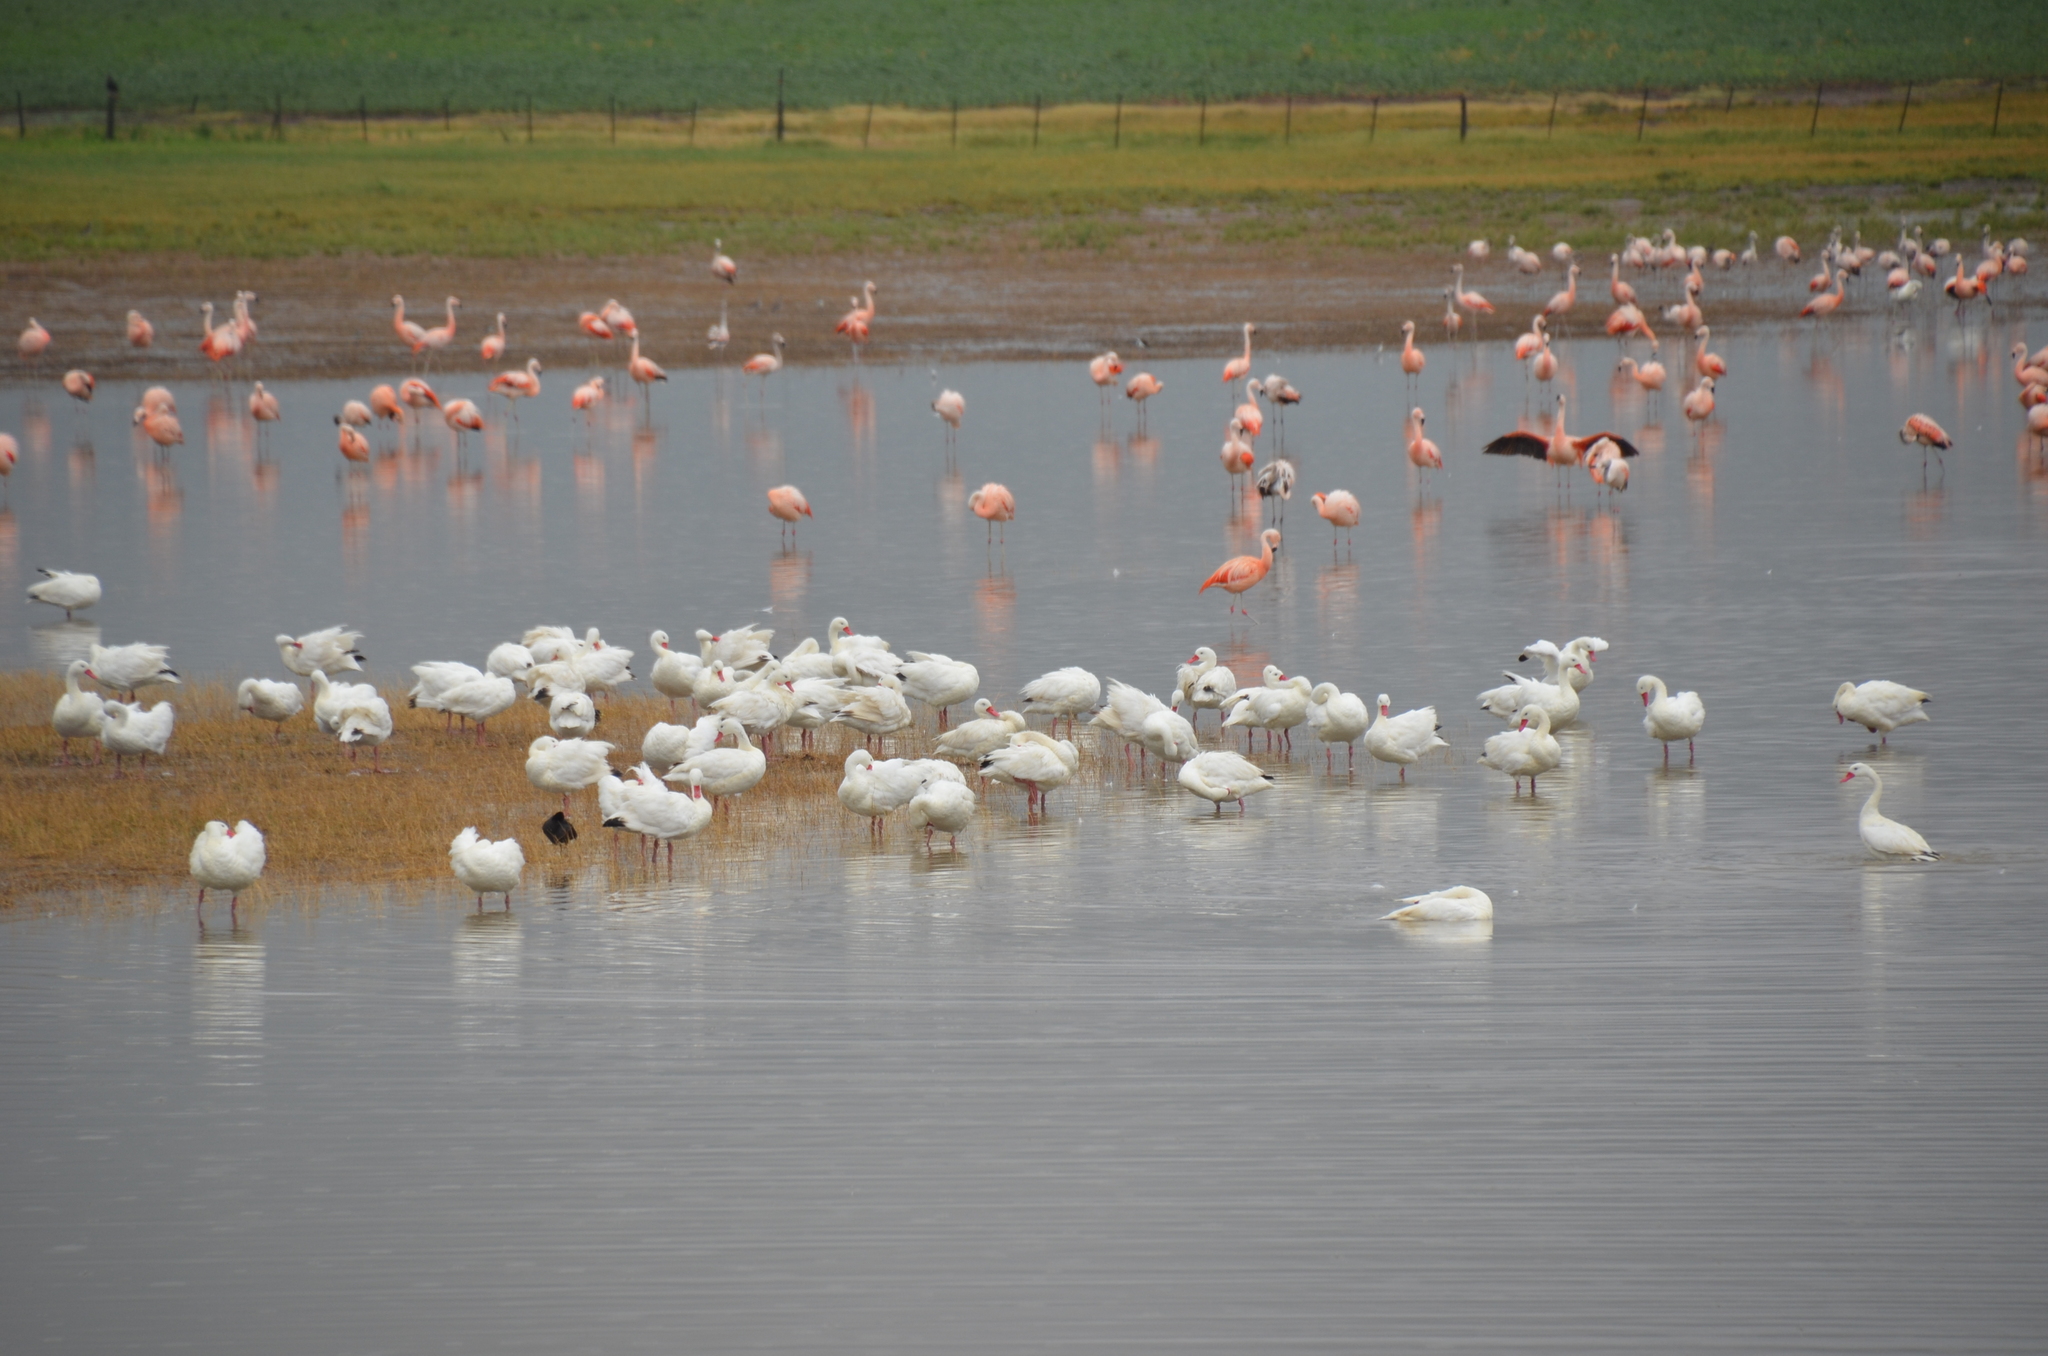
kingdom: Animalia
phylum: Chordata
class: Aves
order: Anseriformes
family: Anatidae
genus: Coscoroba
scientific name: Coscoroba coscoroba
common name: Coscoroba swan
